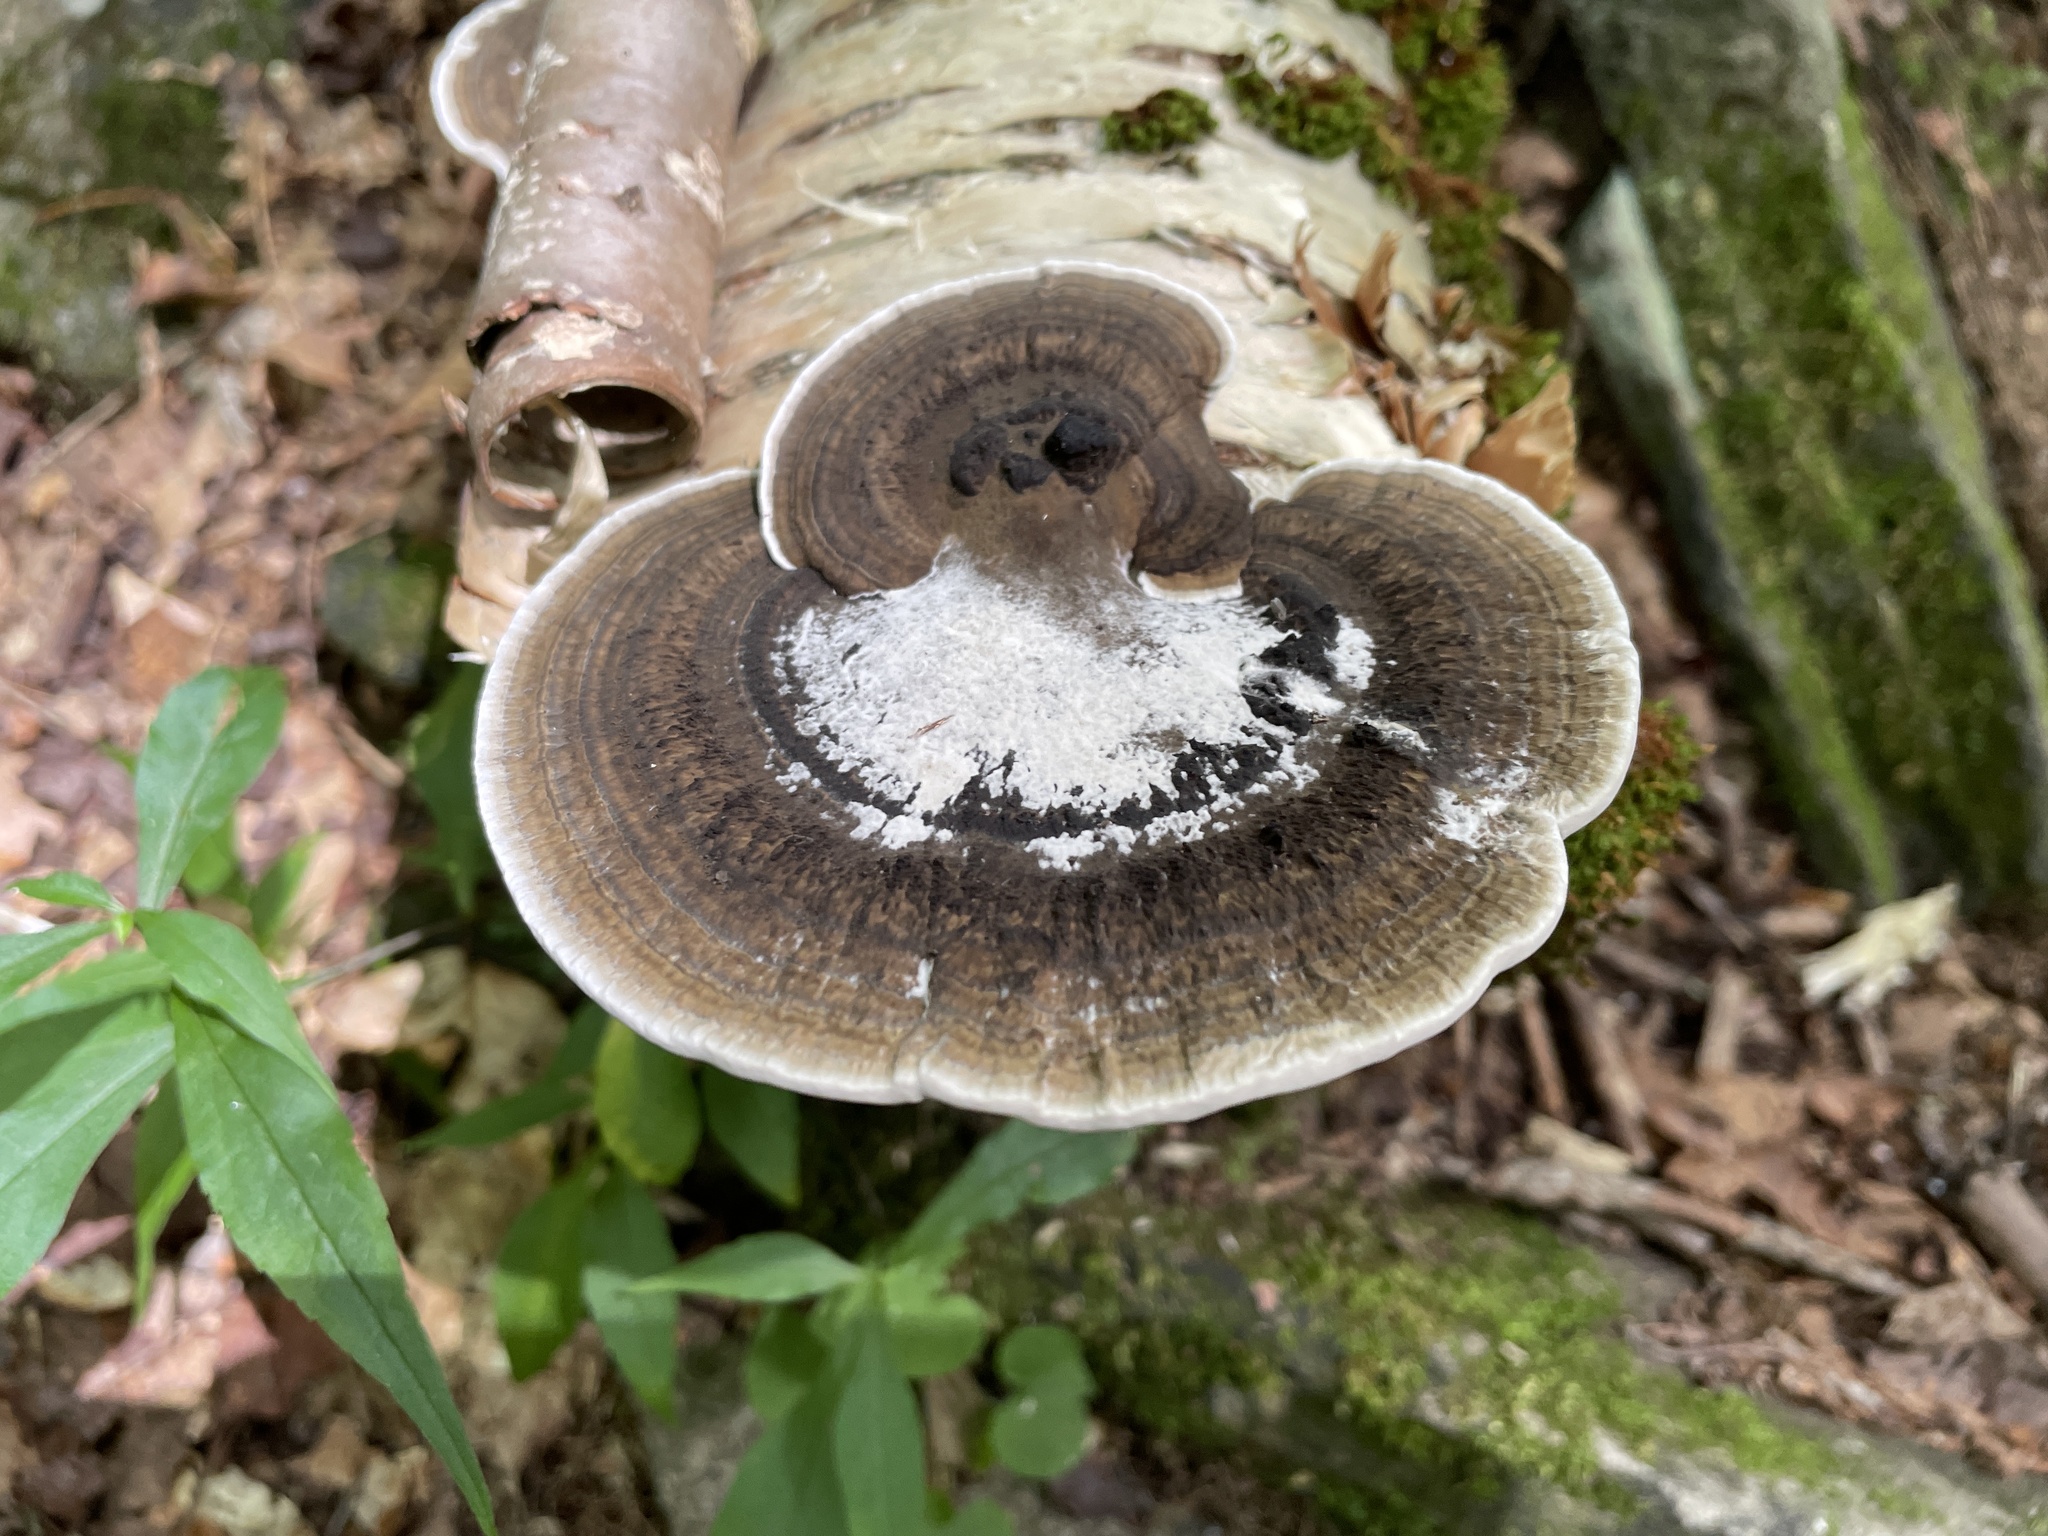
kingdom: Fungi
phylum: Basidiomycota
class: Agaricomycetes
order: Polyporales
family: Polyporaceae
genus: Daedaleopsis
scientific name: Daedaleopsis confragosa
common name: Blushing bracket
